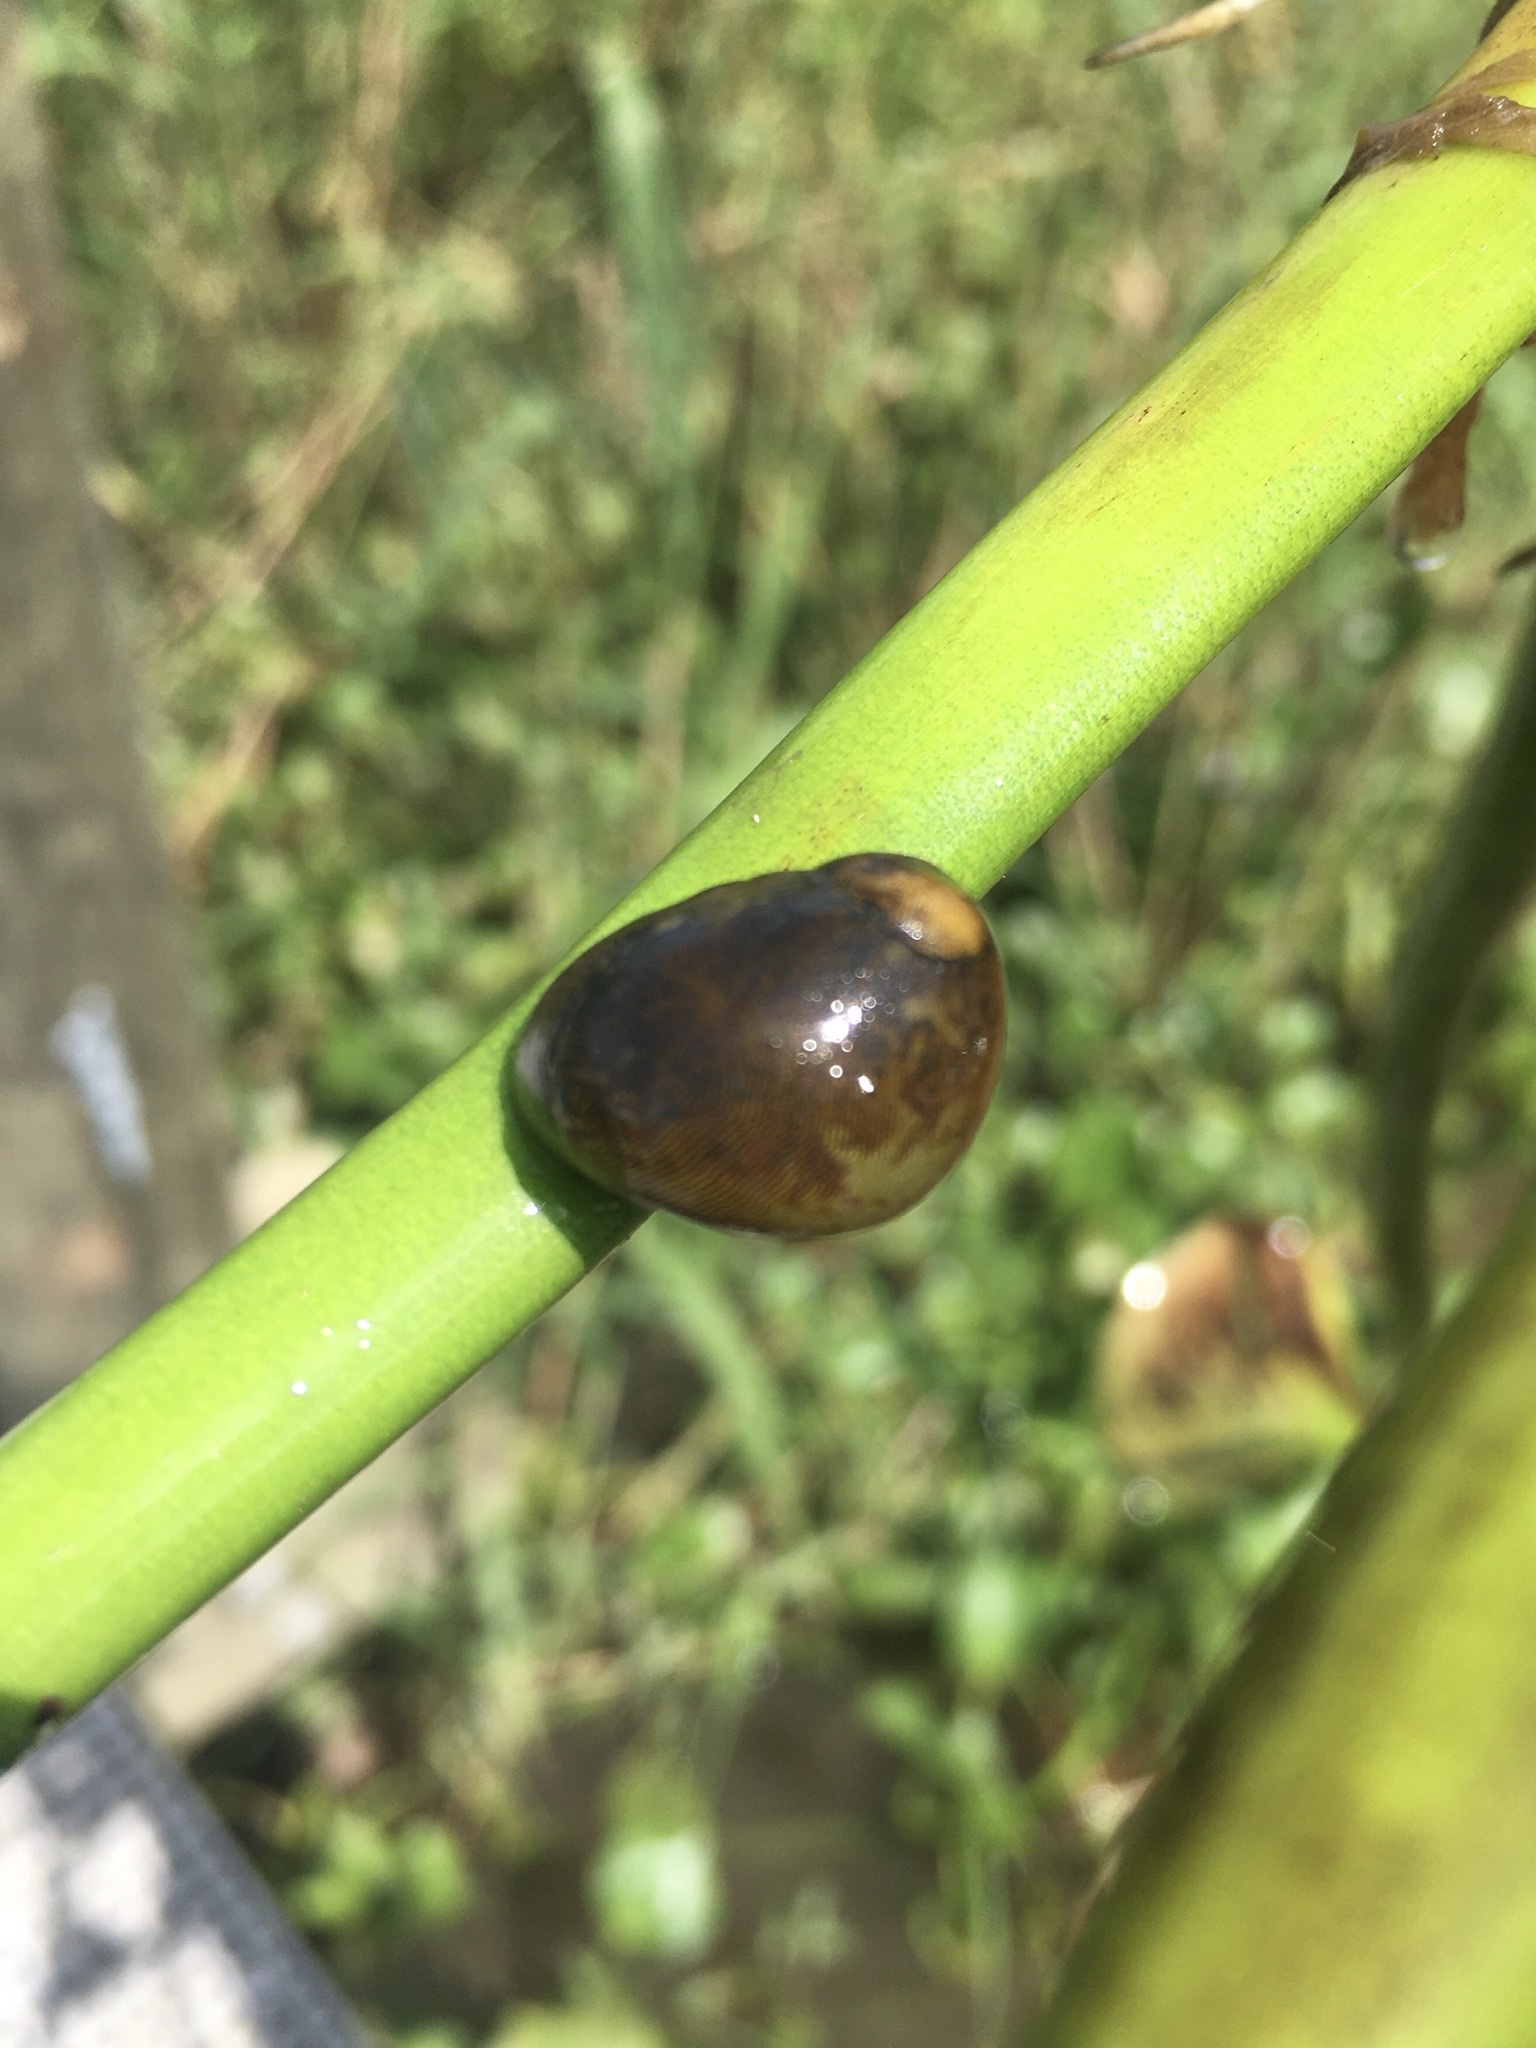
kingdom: Animalia
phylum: Mollusca
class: Gastropoda
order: Cycloneritida
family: Neritidae
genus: Vitta
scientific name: Vitta usnea
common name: Olive nerite
